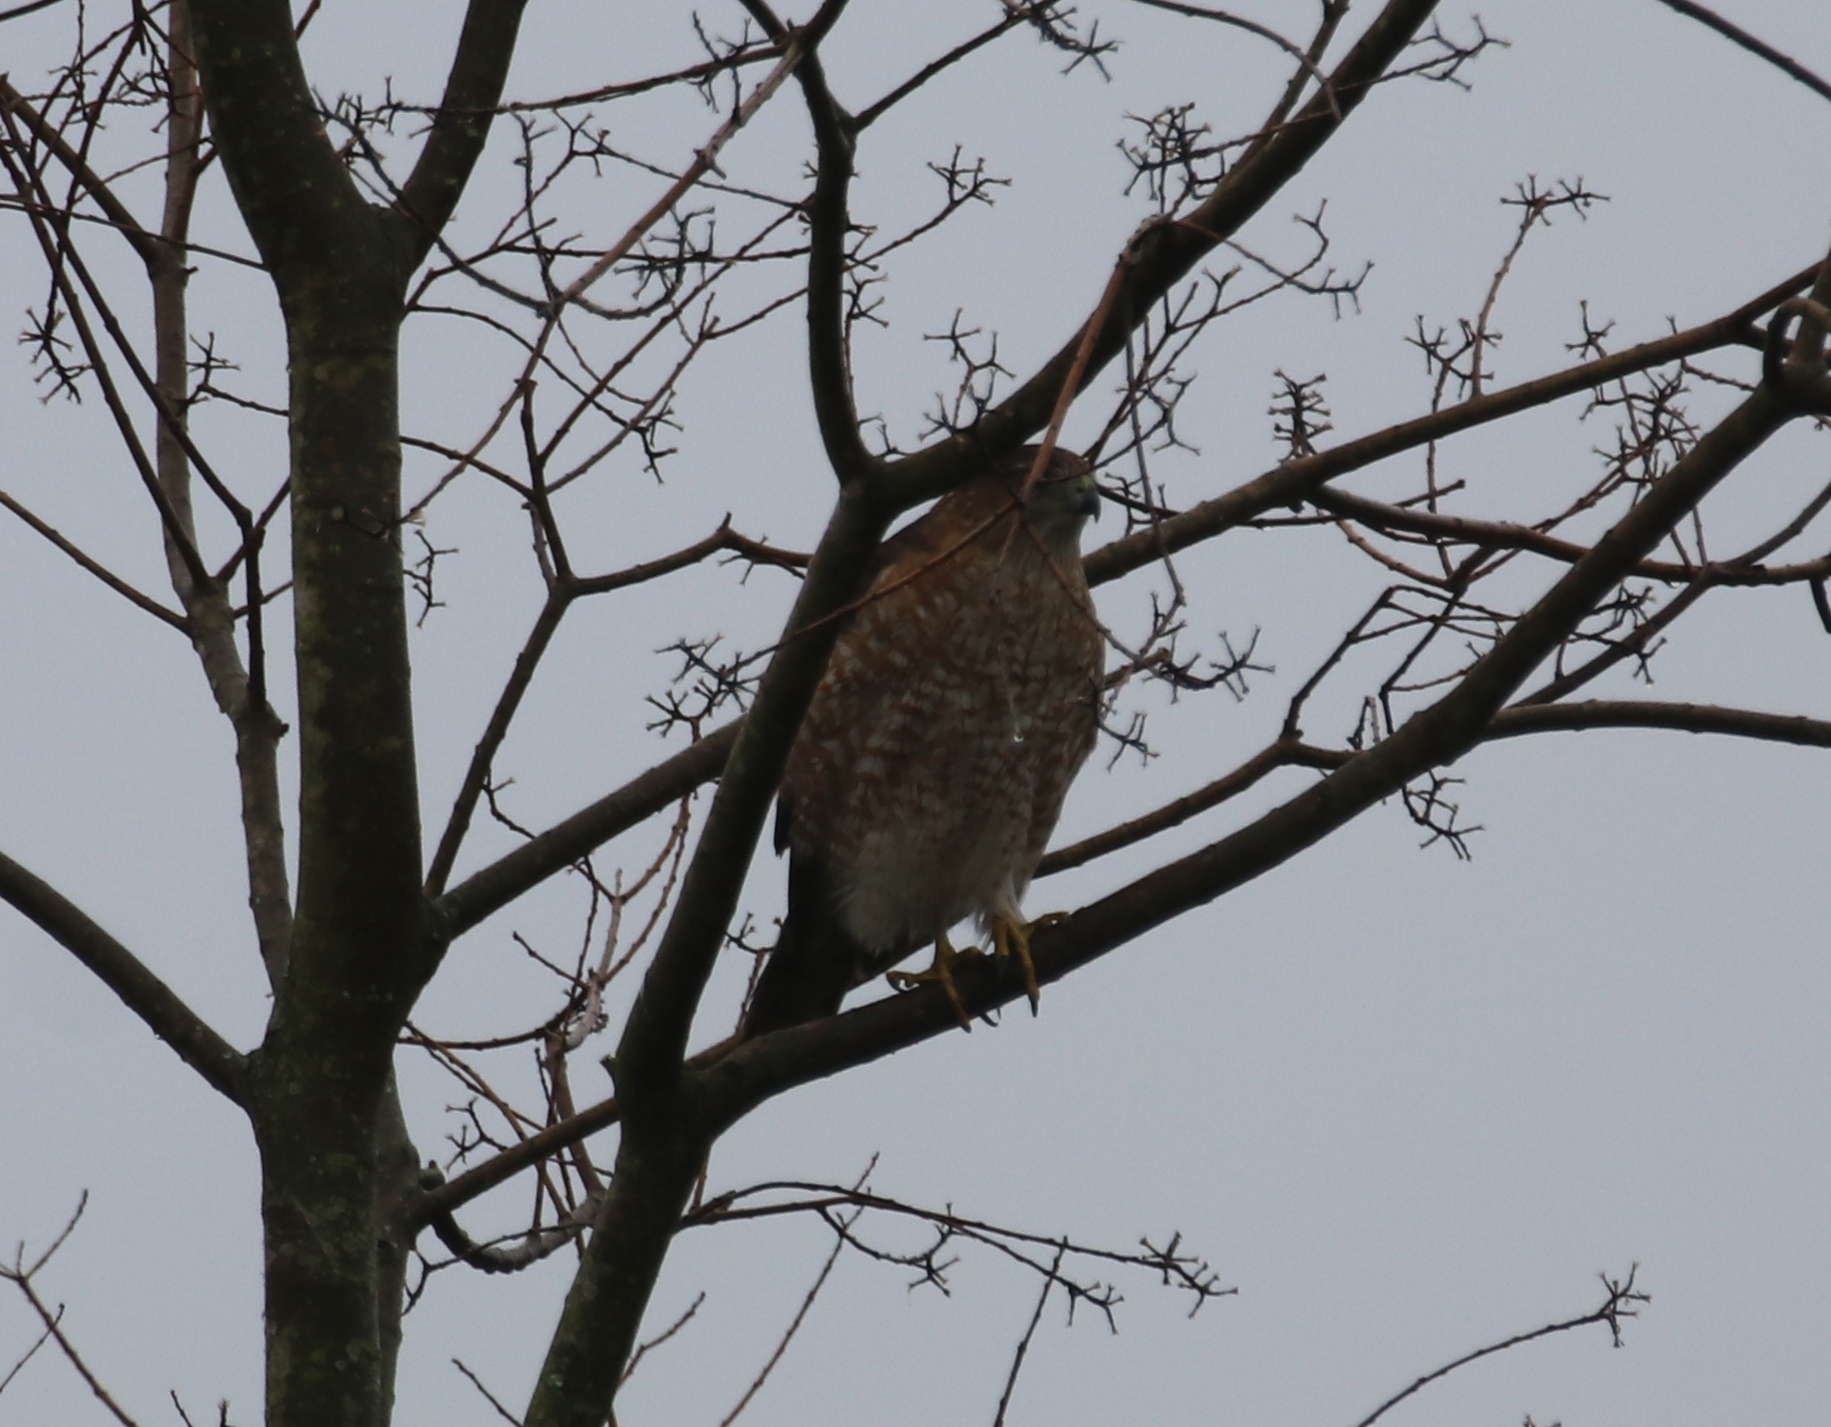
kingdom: Animalia
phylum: Chordata
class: Aves
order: Accipitriformes
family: Accipitridae
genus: Buteo
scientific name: Buteo lineatus
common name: Red-shouldered hawk
